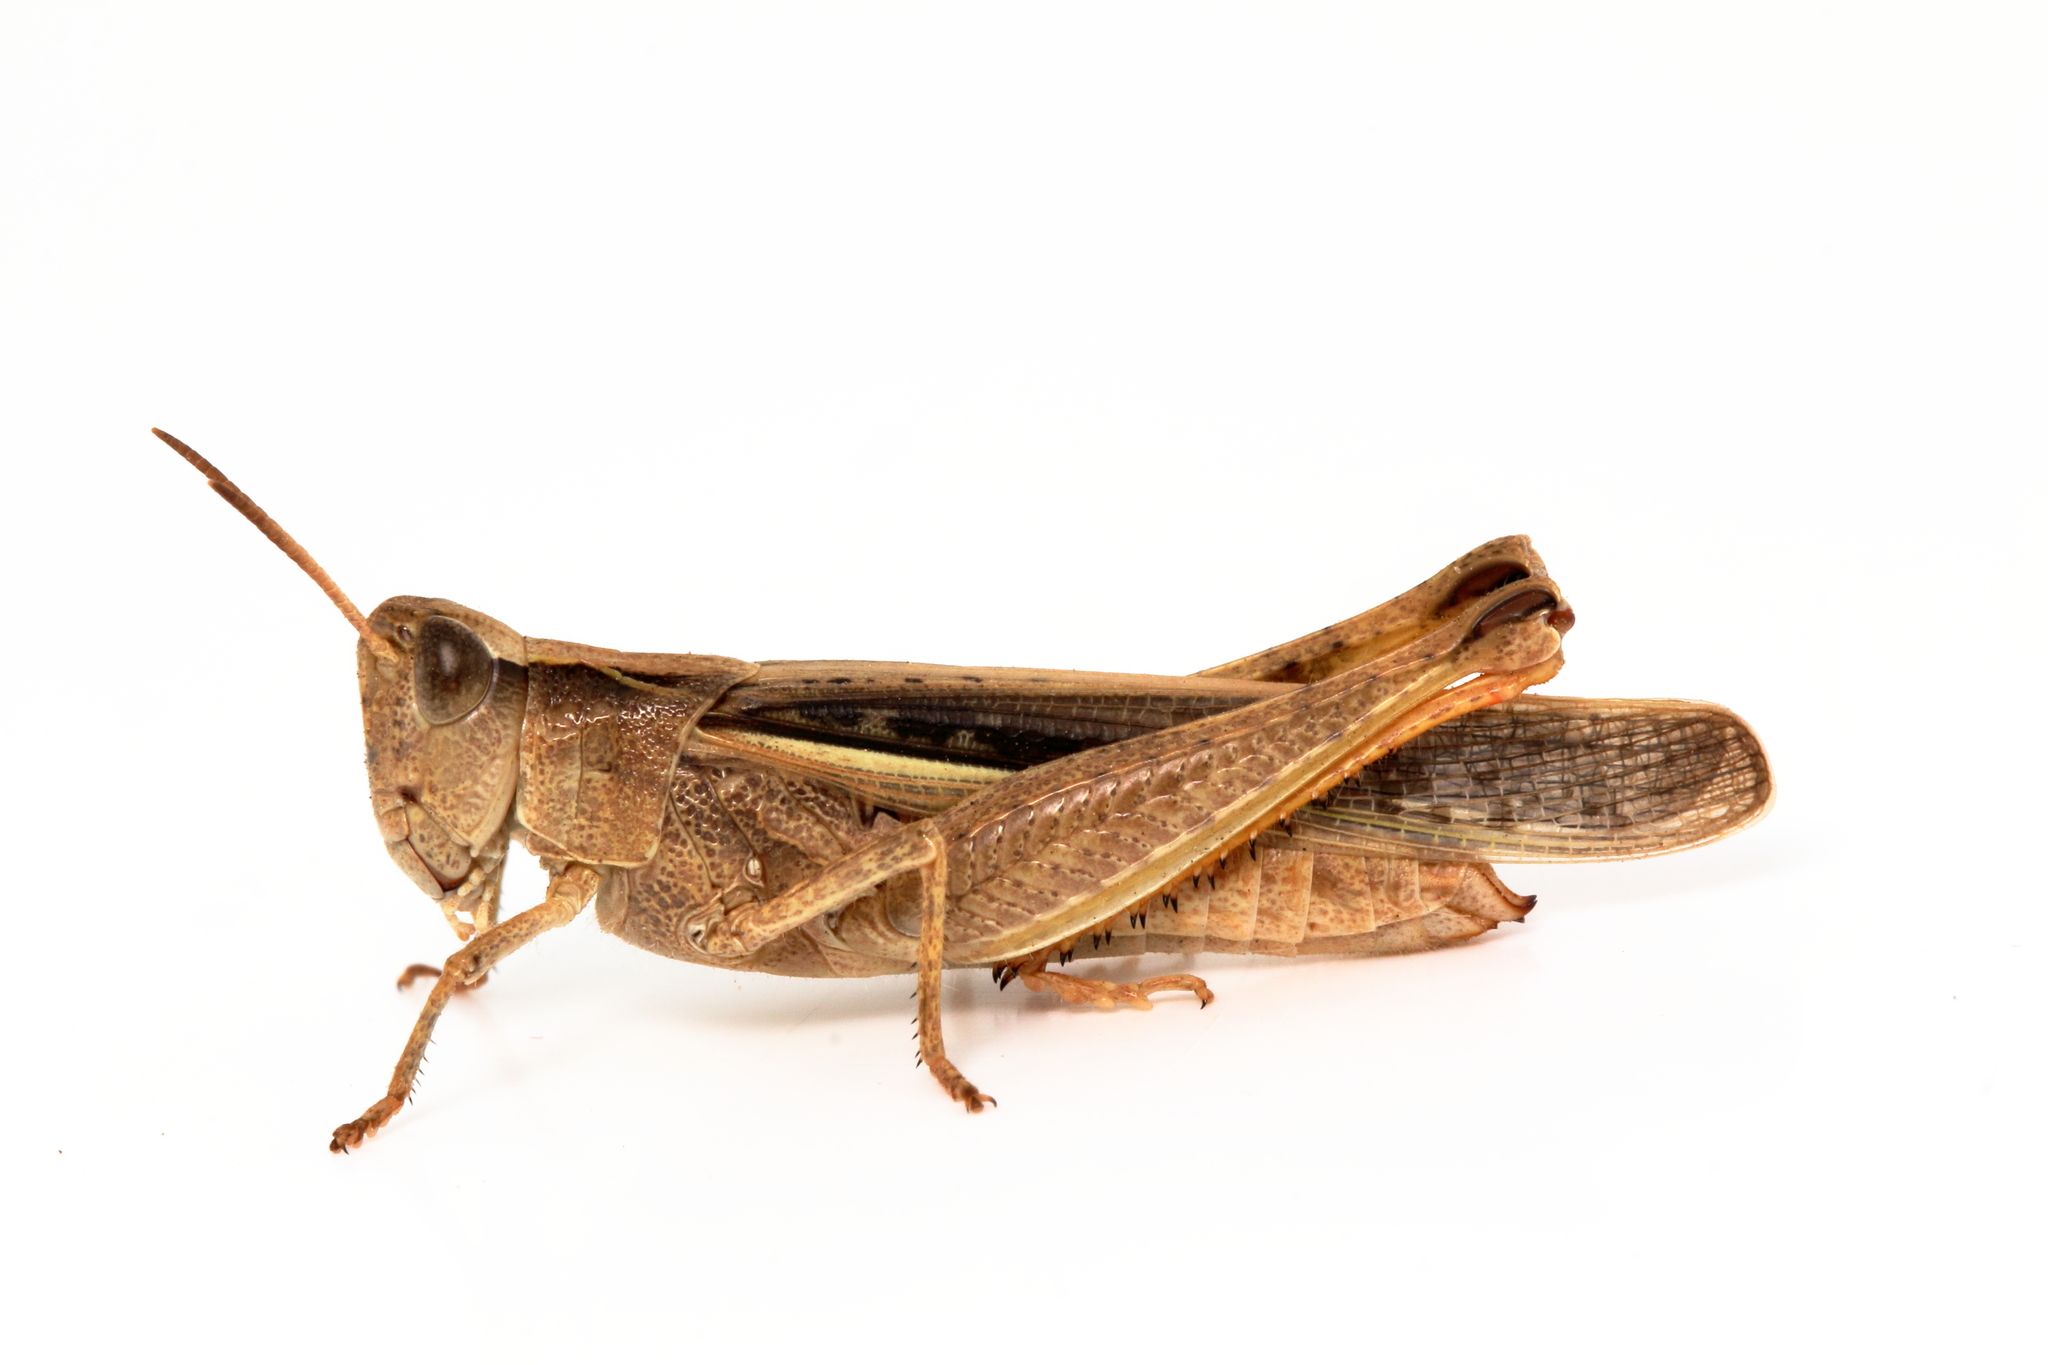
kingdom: Animalia
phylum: Arthropoda
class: Insecta
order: Orthoptera
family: Acrididae
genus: Schizobothrus
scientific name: Schizobothrus flavovittatus
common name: Disappearing grasshopper
